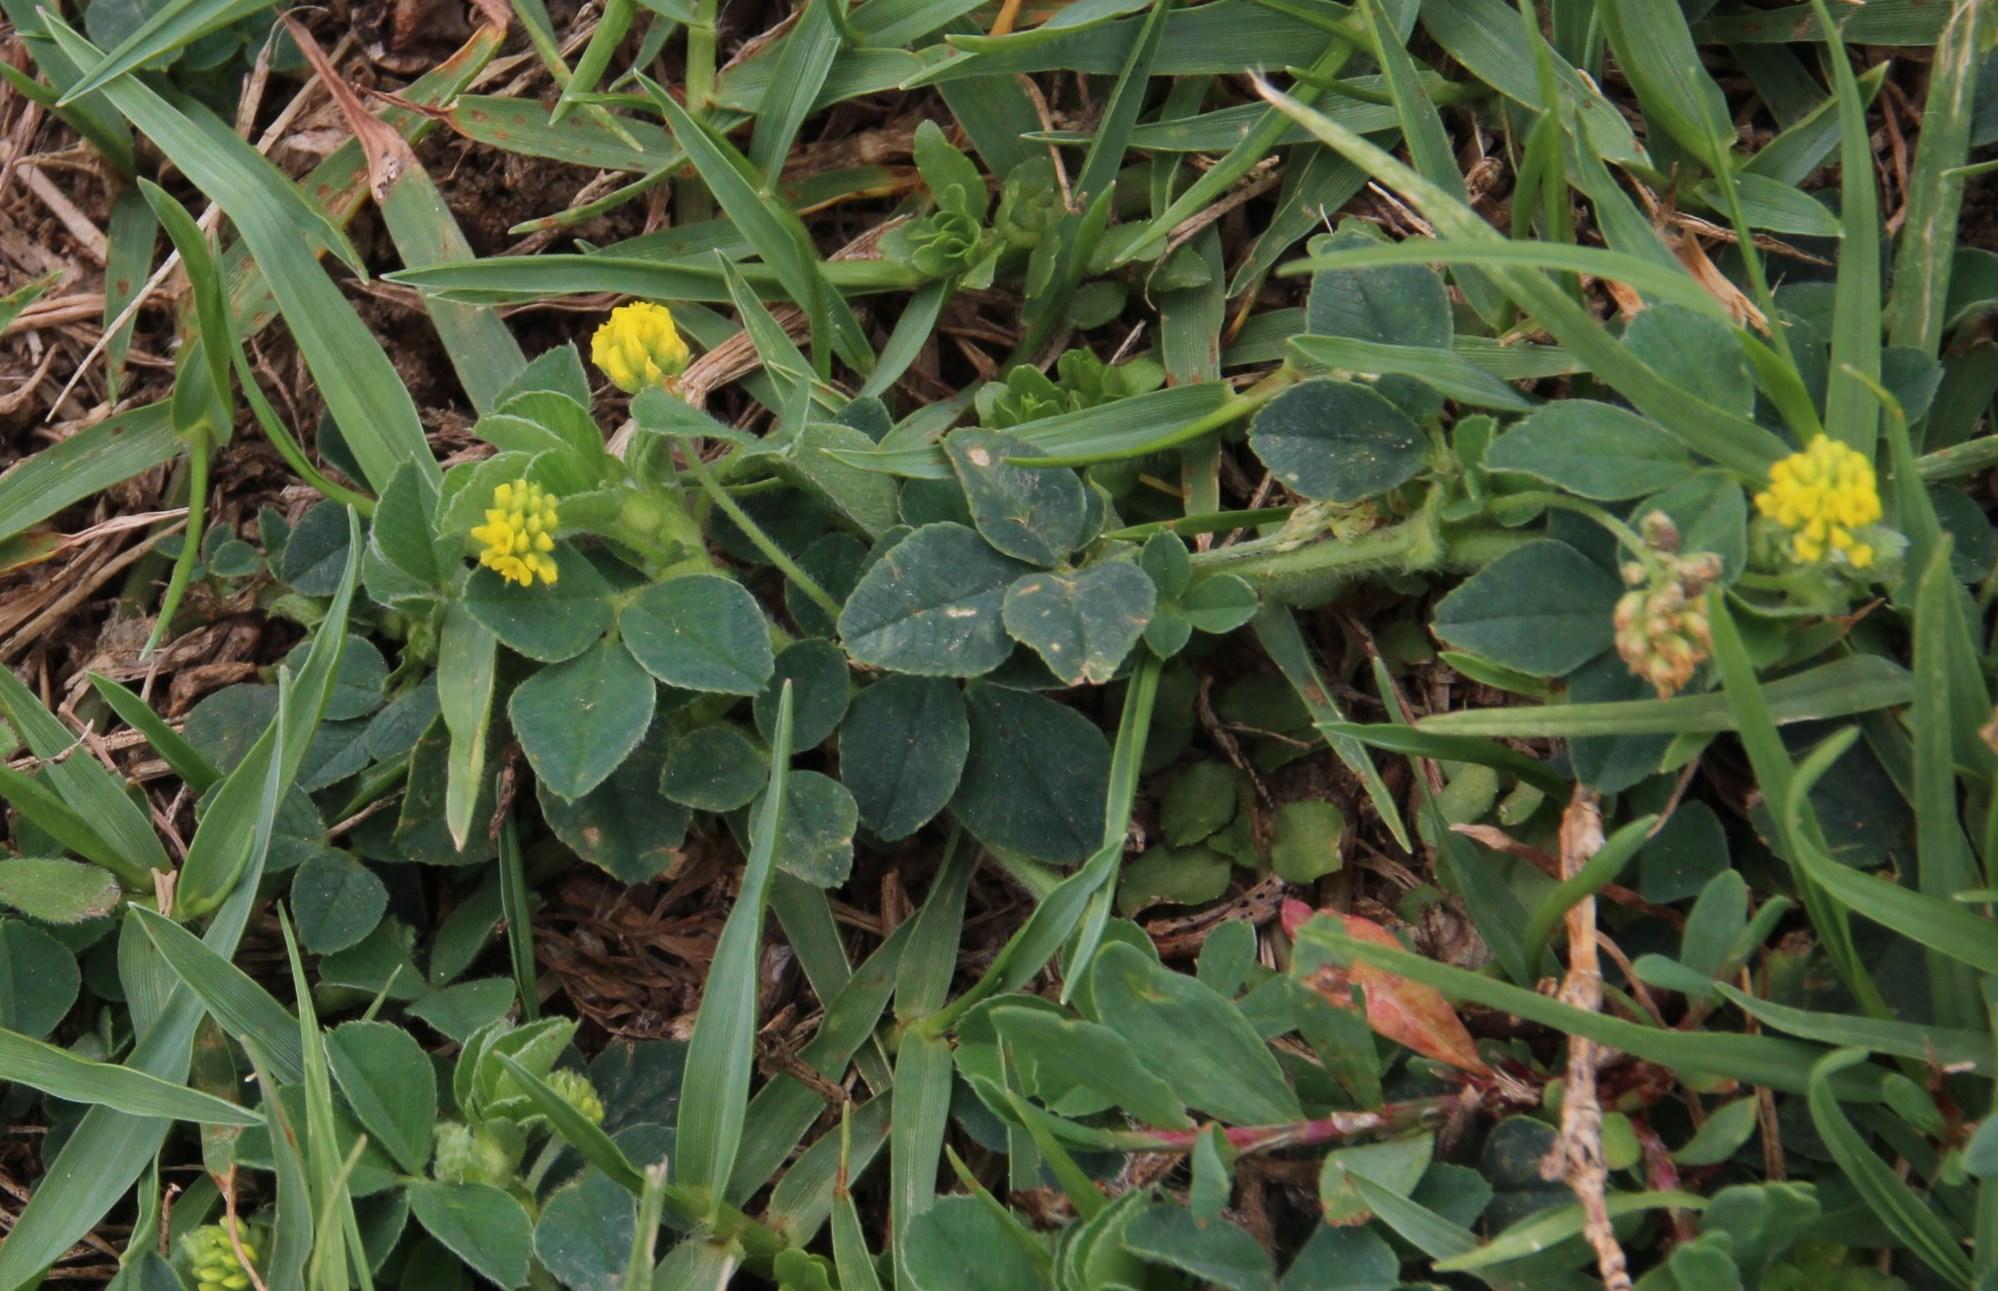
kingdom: Plantae
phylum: Tracheophyta
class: Magnoliopsida
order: Fabales
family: Fabaceae
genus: Medicago
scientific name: Medicago lupulina
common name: Black medick
